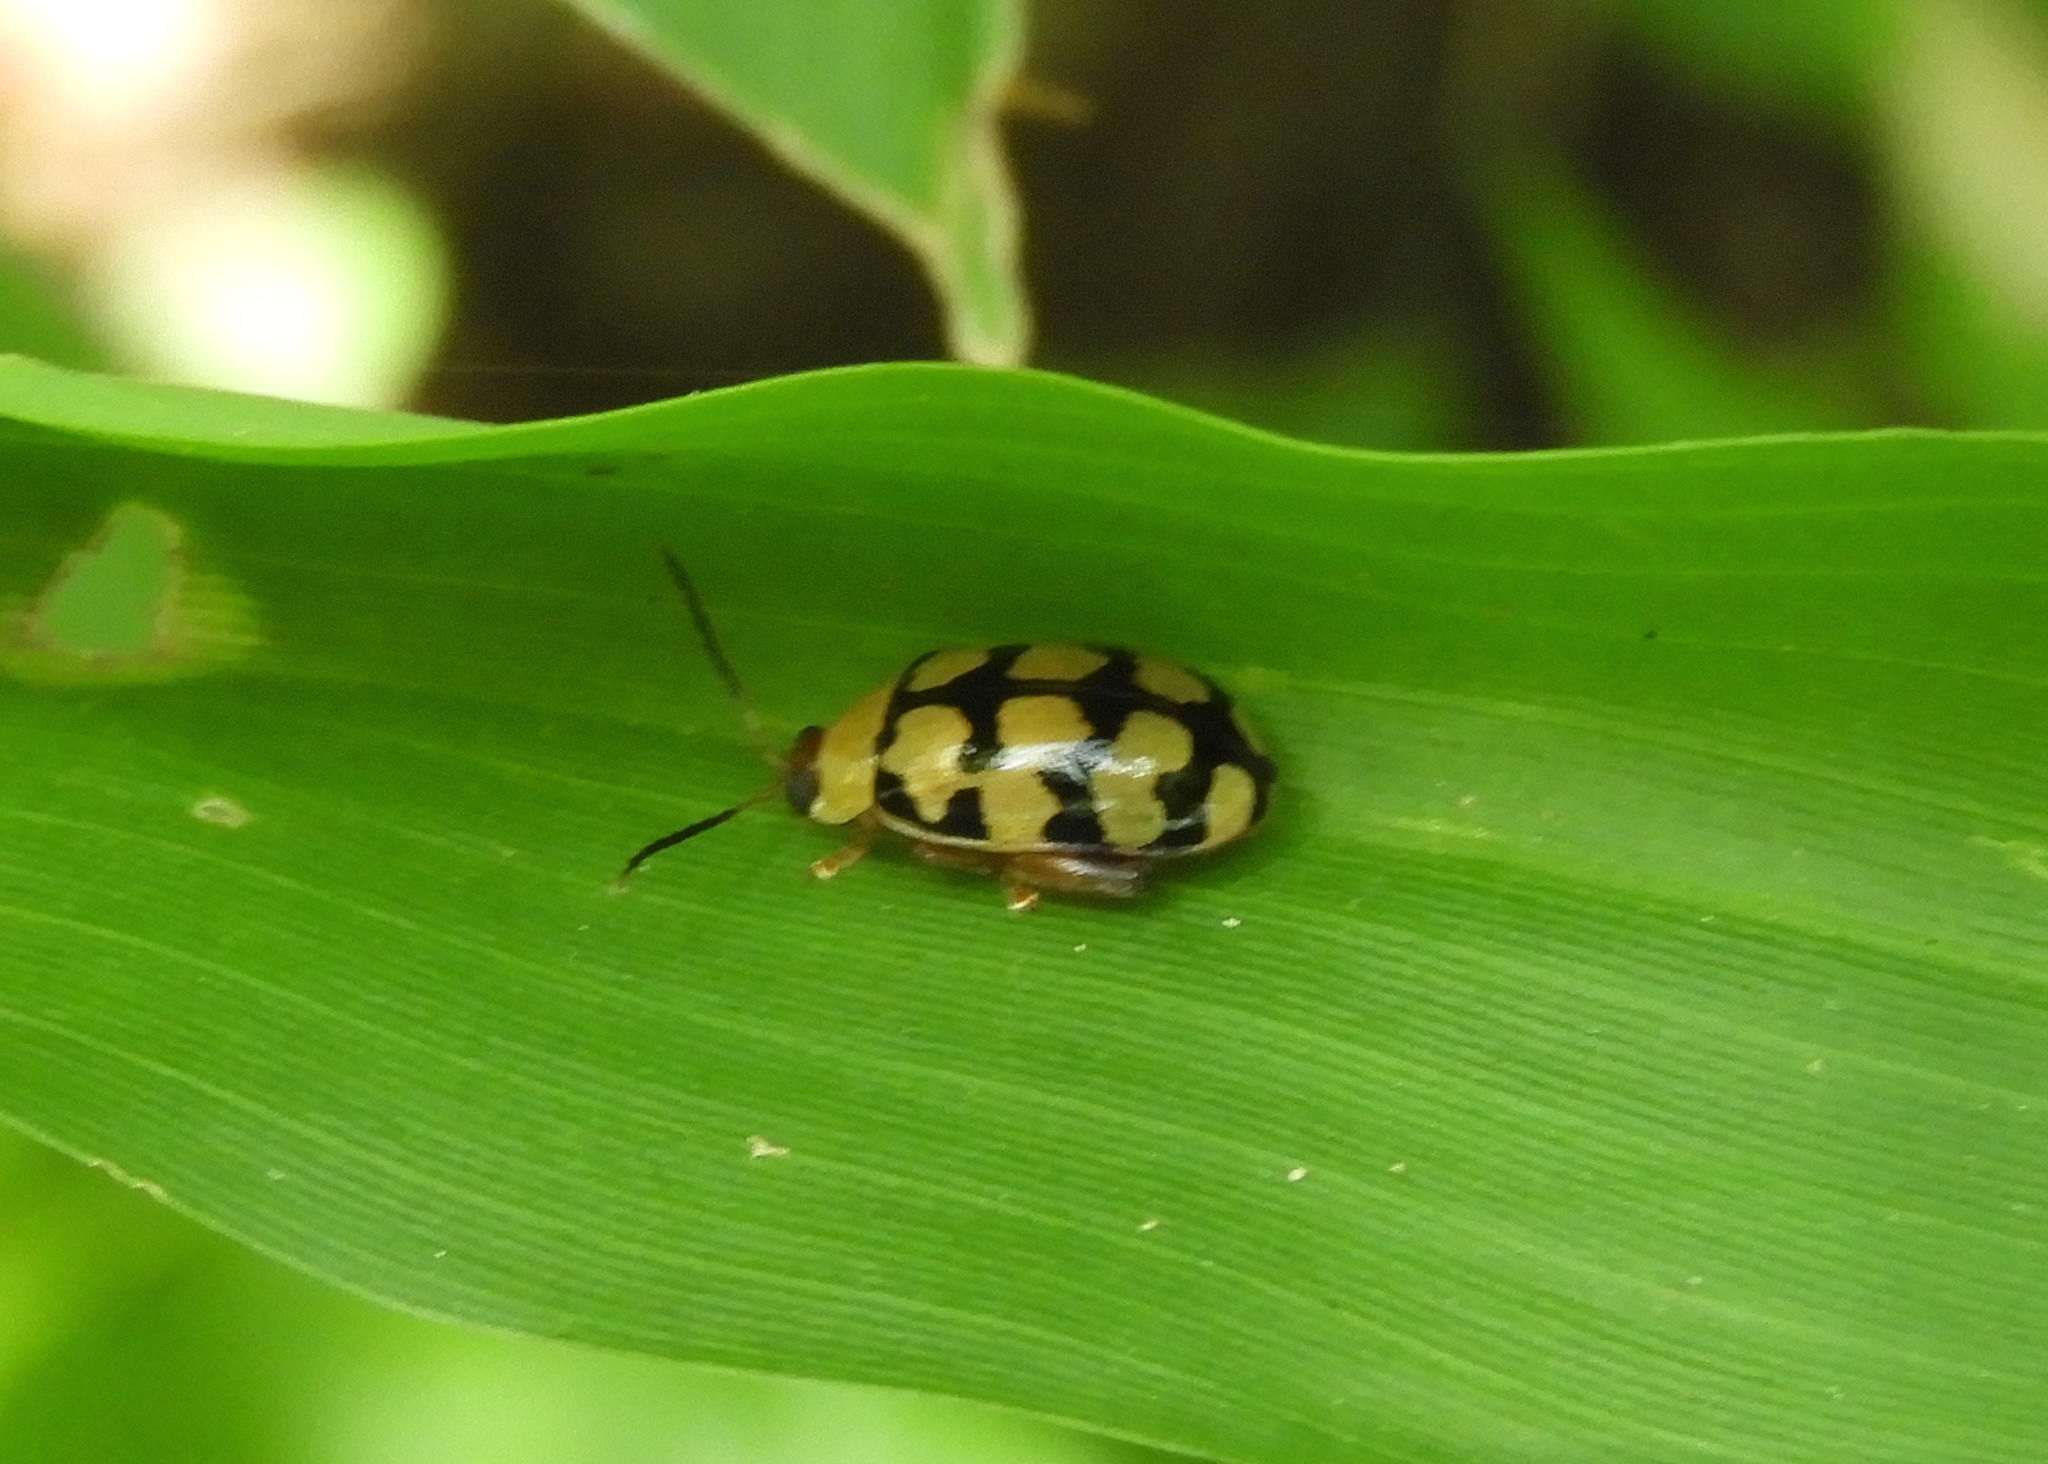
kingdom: Animalia
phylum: Arthropoda
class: Insecta
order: Coleoptera
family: Chrysomelidae
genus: Alagoasa
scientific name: Alagoasa
